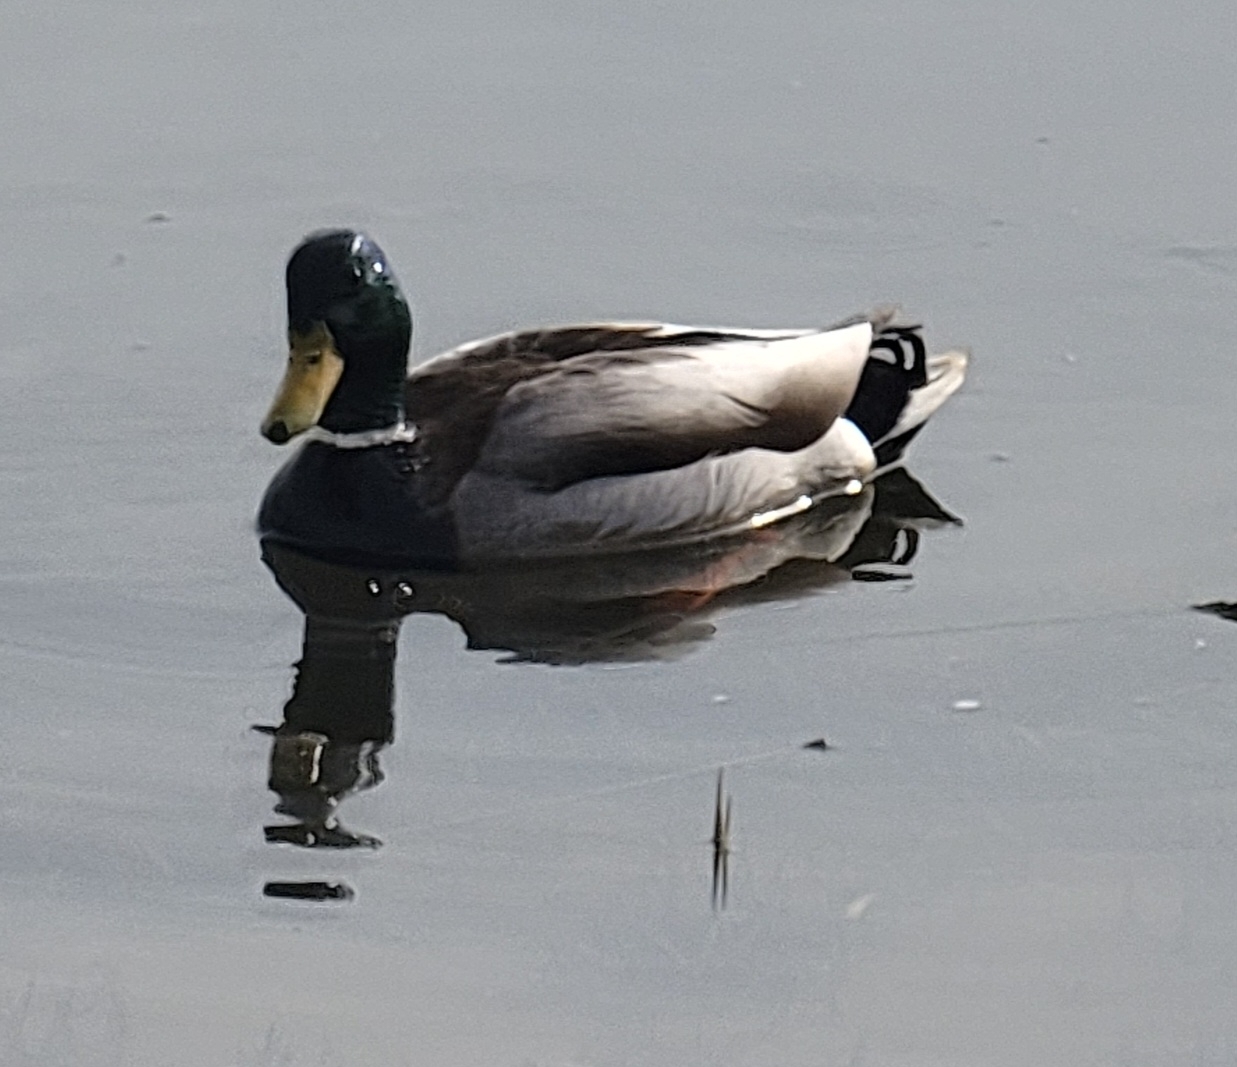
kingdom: Animalia
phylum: Chordata
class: Aves
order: Anseriformes
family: Anatidae
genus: Anas
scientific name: Anas platyrhynchos
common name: Mallard
